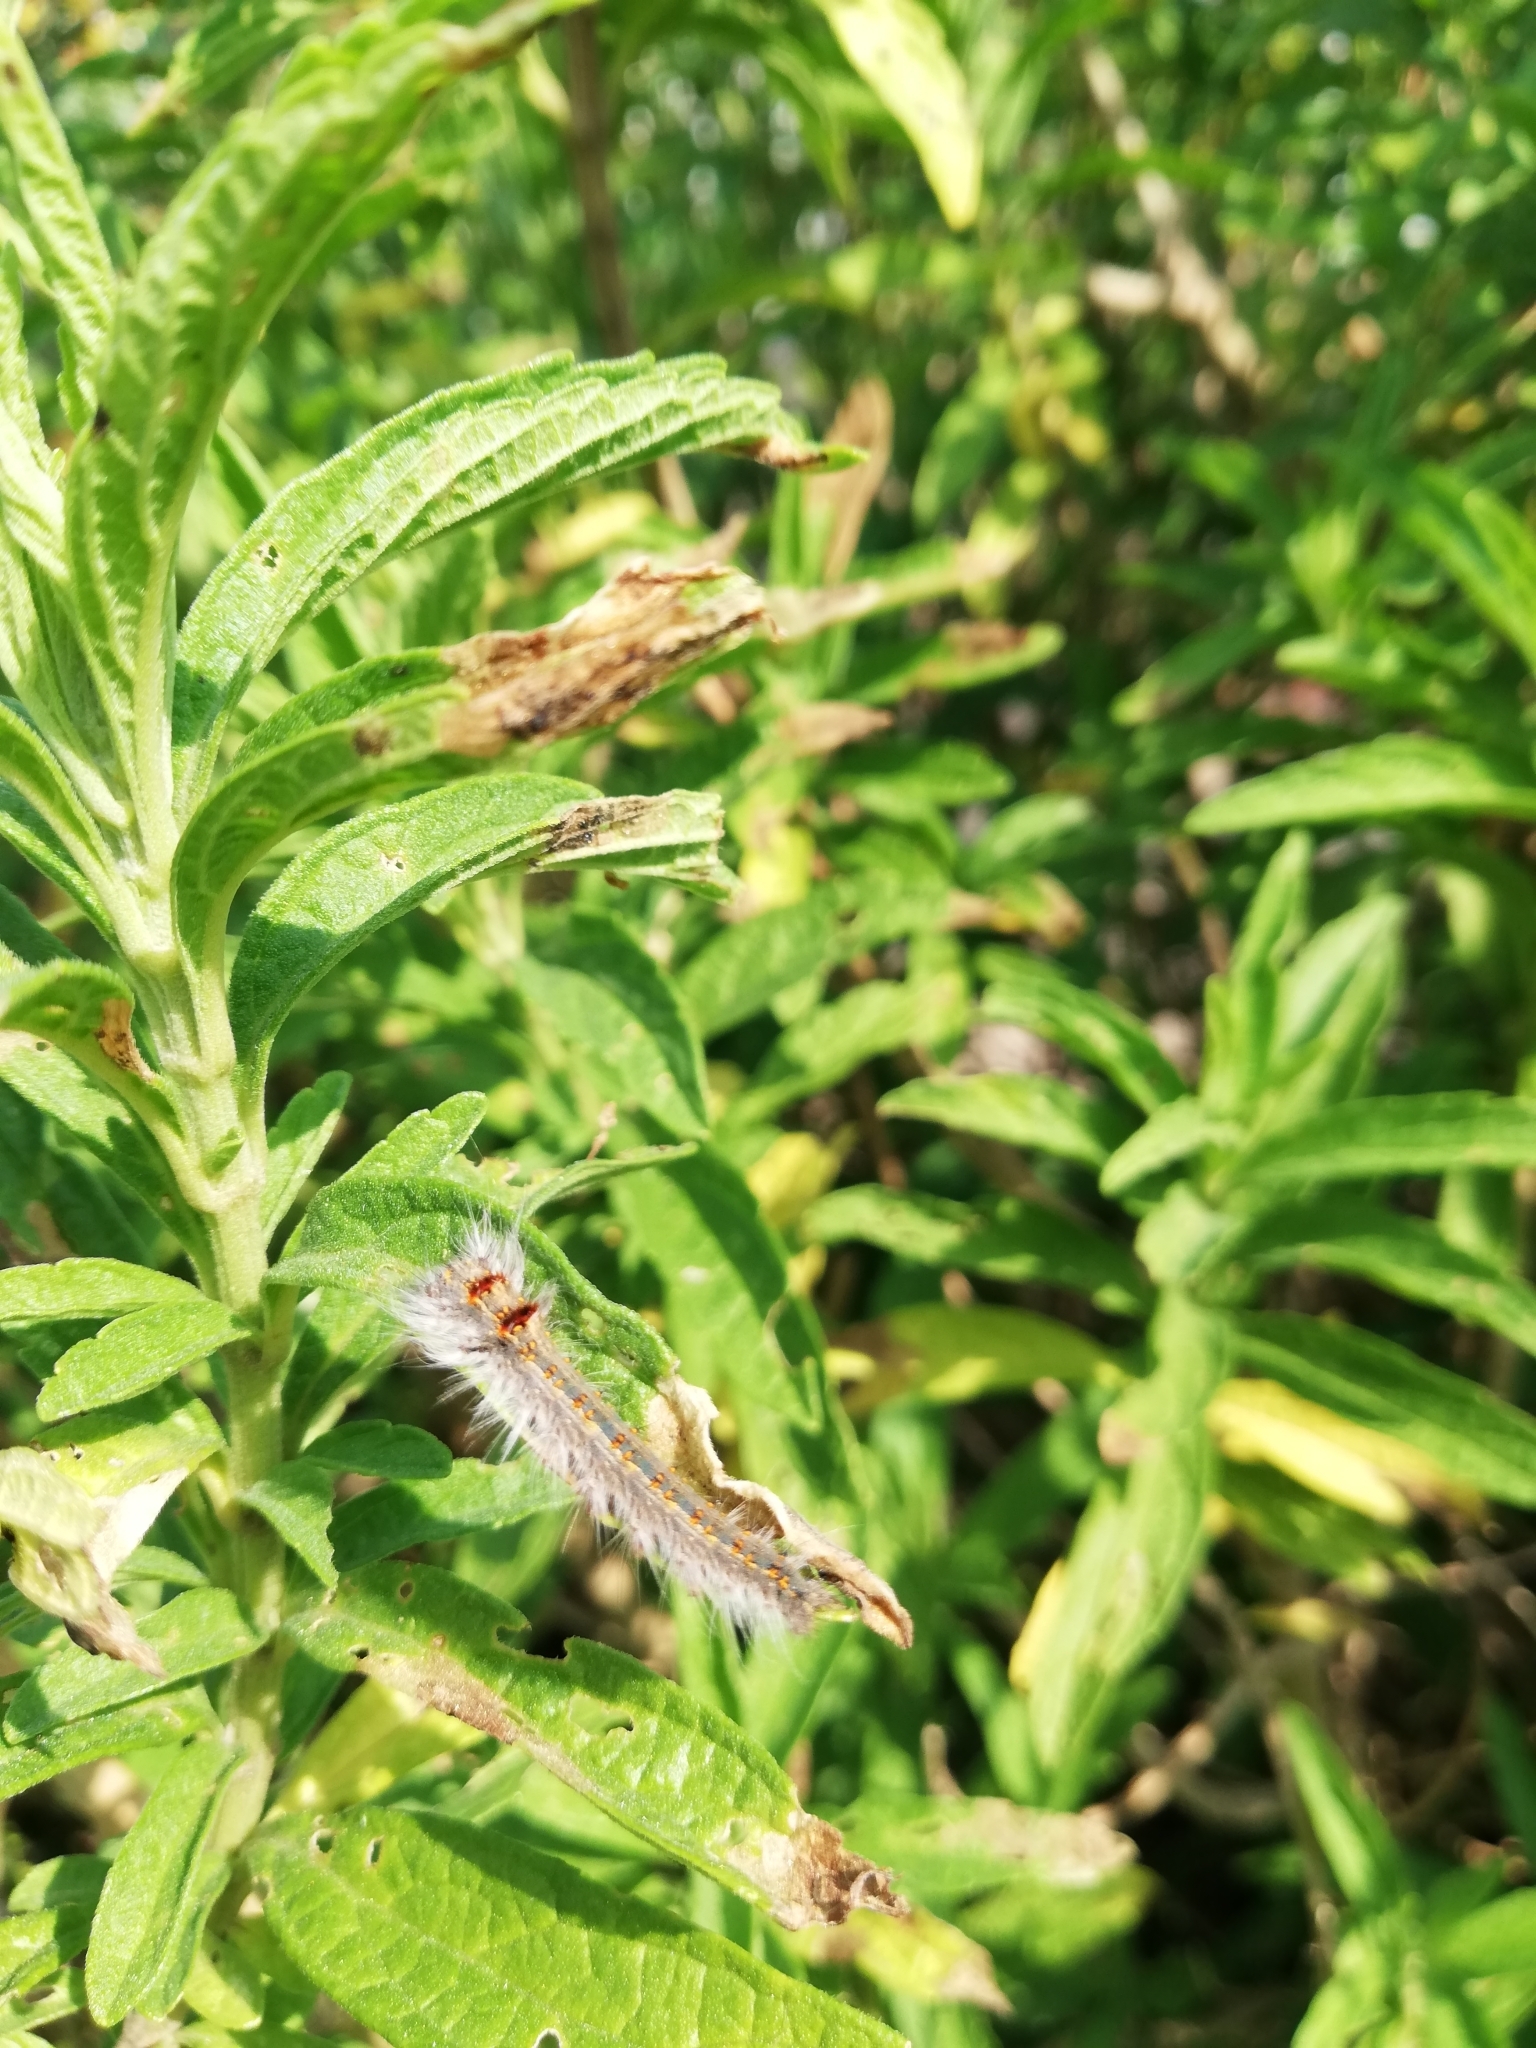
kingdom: Animalia
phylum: Arthropoda
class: Insecta
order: Lepidoptera
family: Lasiocampidae
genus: Bombycopsis
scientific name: Bombycopsis capicola
